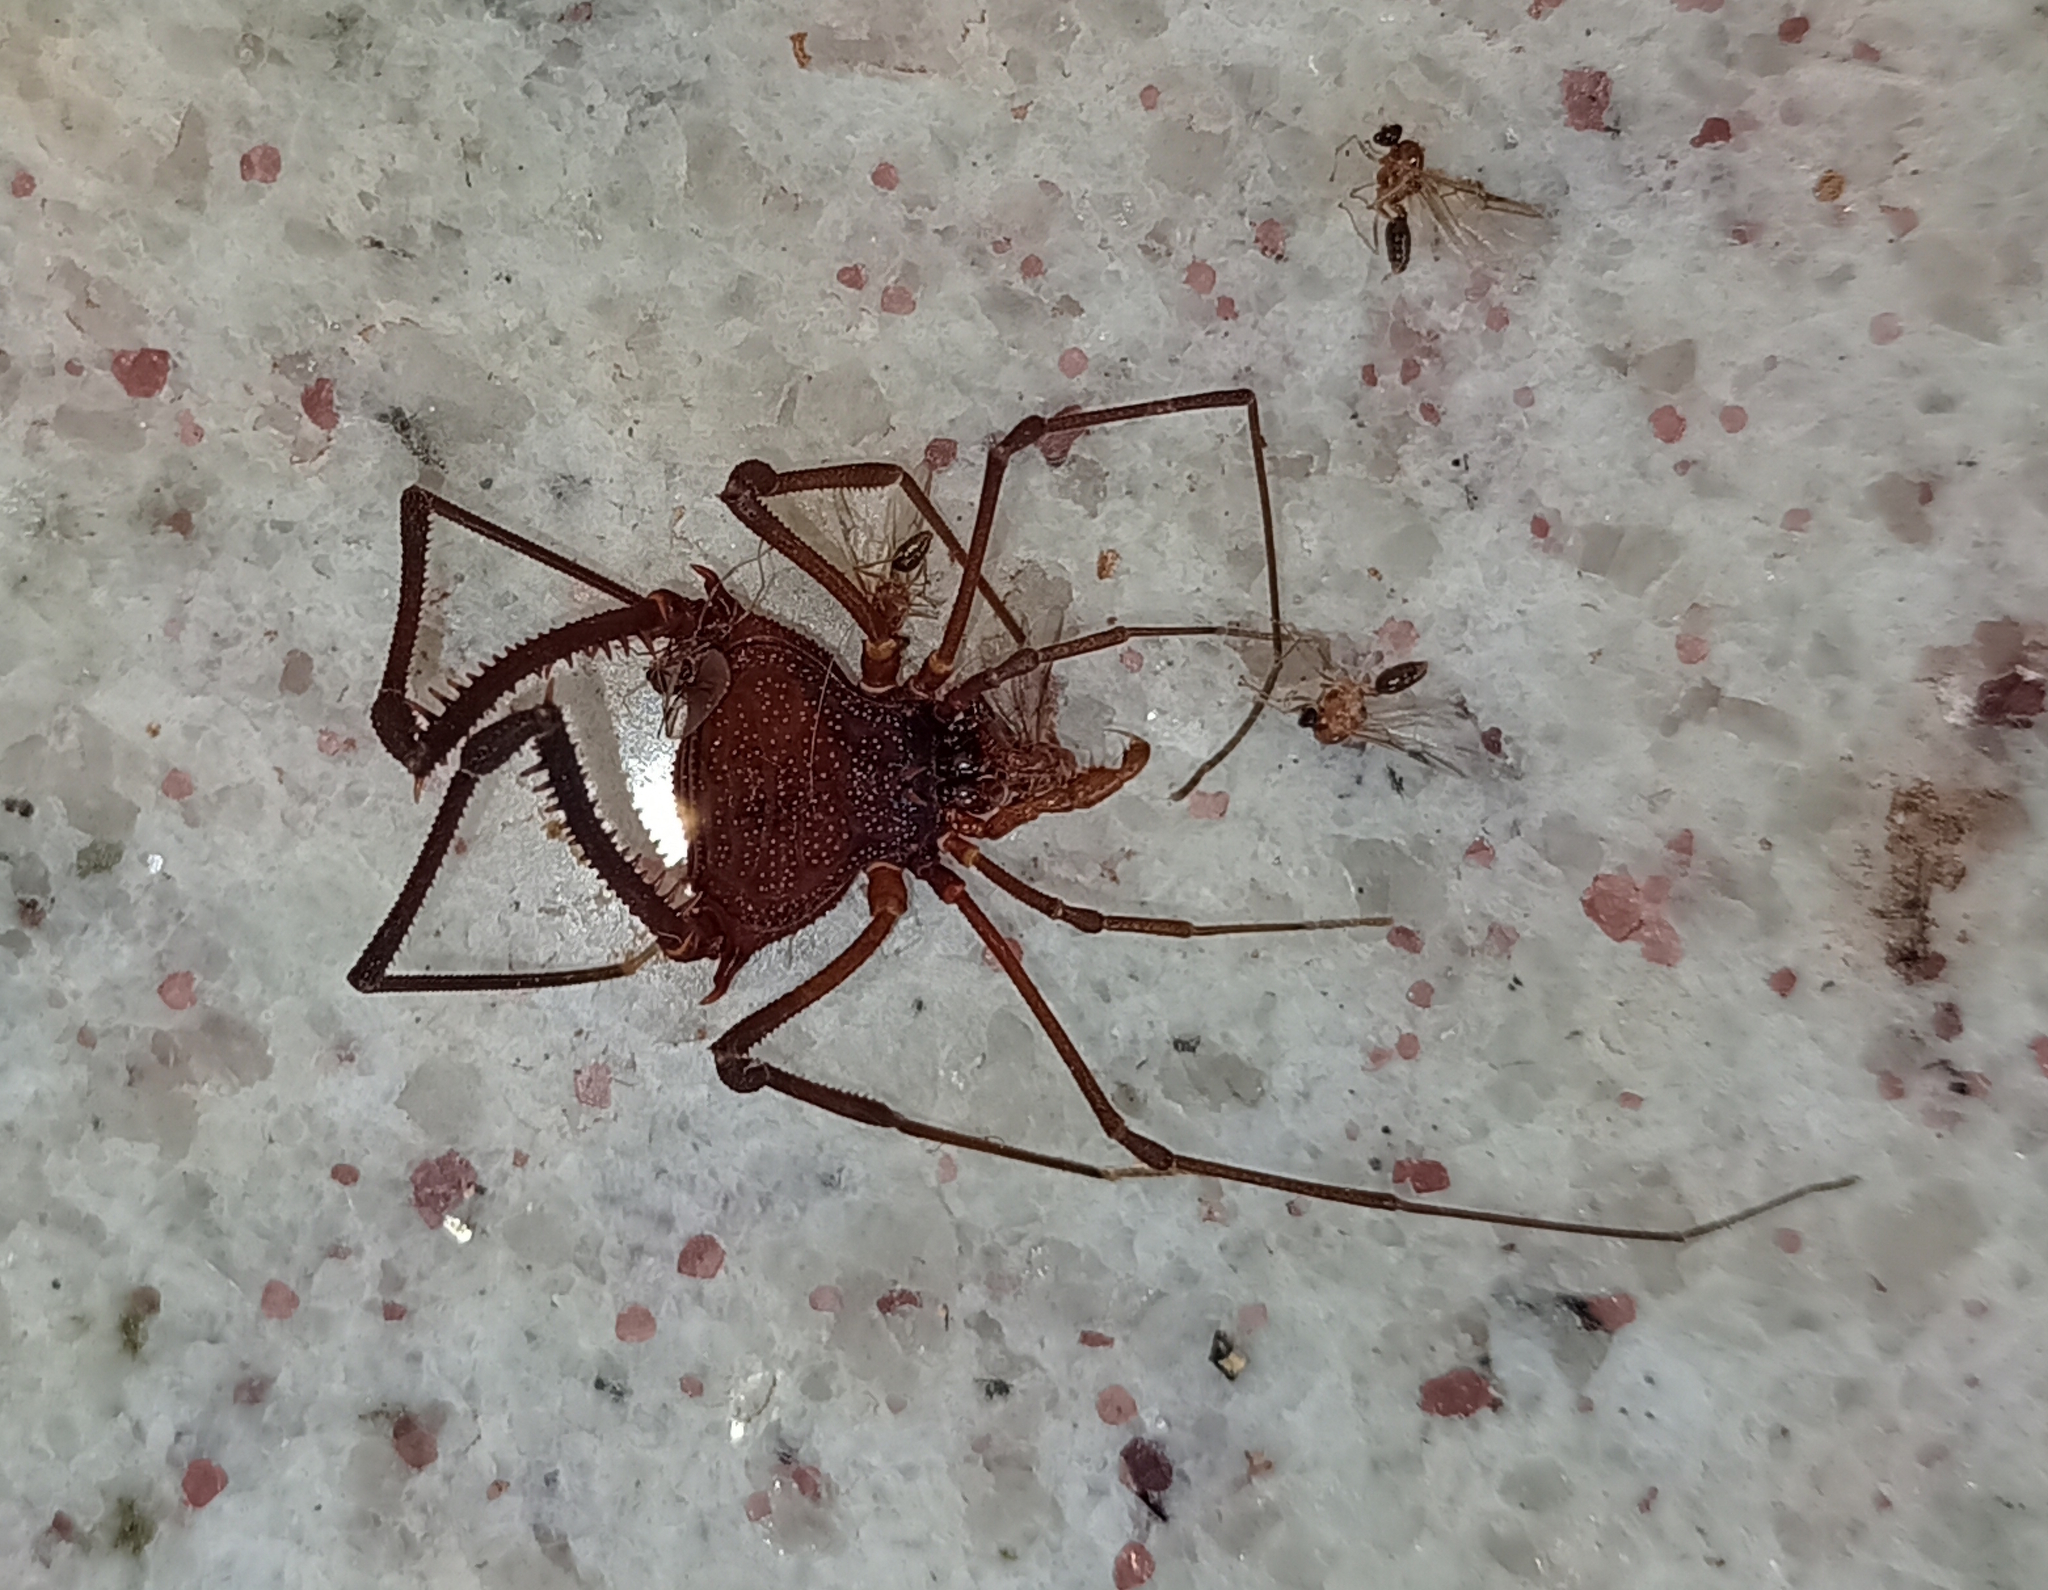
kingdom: Animalia
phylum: Arthropoda
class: Arachnida
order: Opiliones
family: Gonyleptidae
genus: Discocyrtanus
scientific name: Discocyrtanus pertenuis
